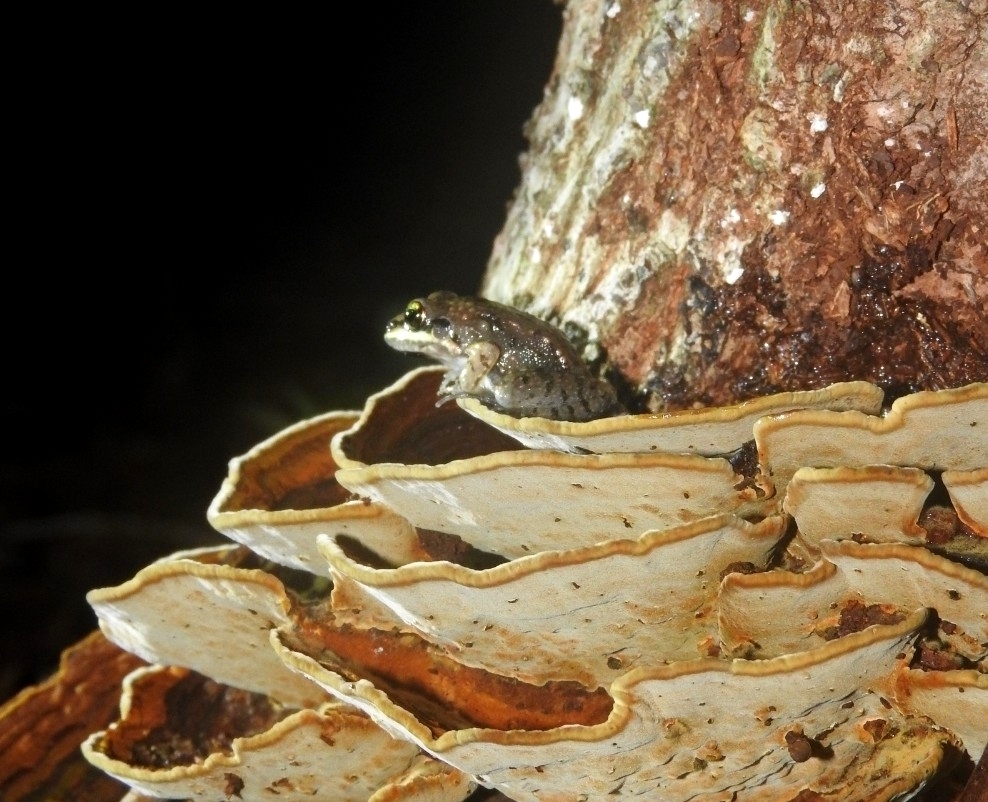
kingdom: Animalia
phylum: Chordata
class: Amphibia
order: Anura
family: Leptodactylidae
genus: Leptodactylus
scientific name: Leptodactylus fragilis
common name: Mexican white-lipped frog
